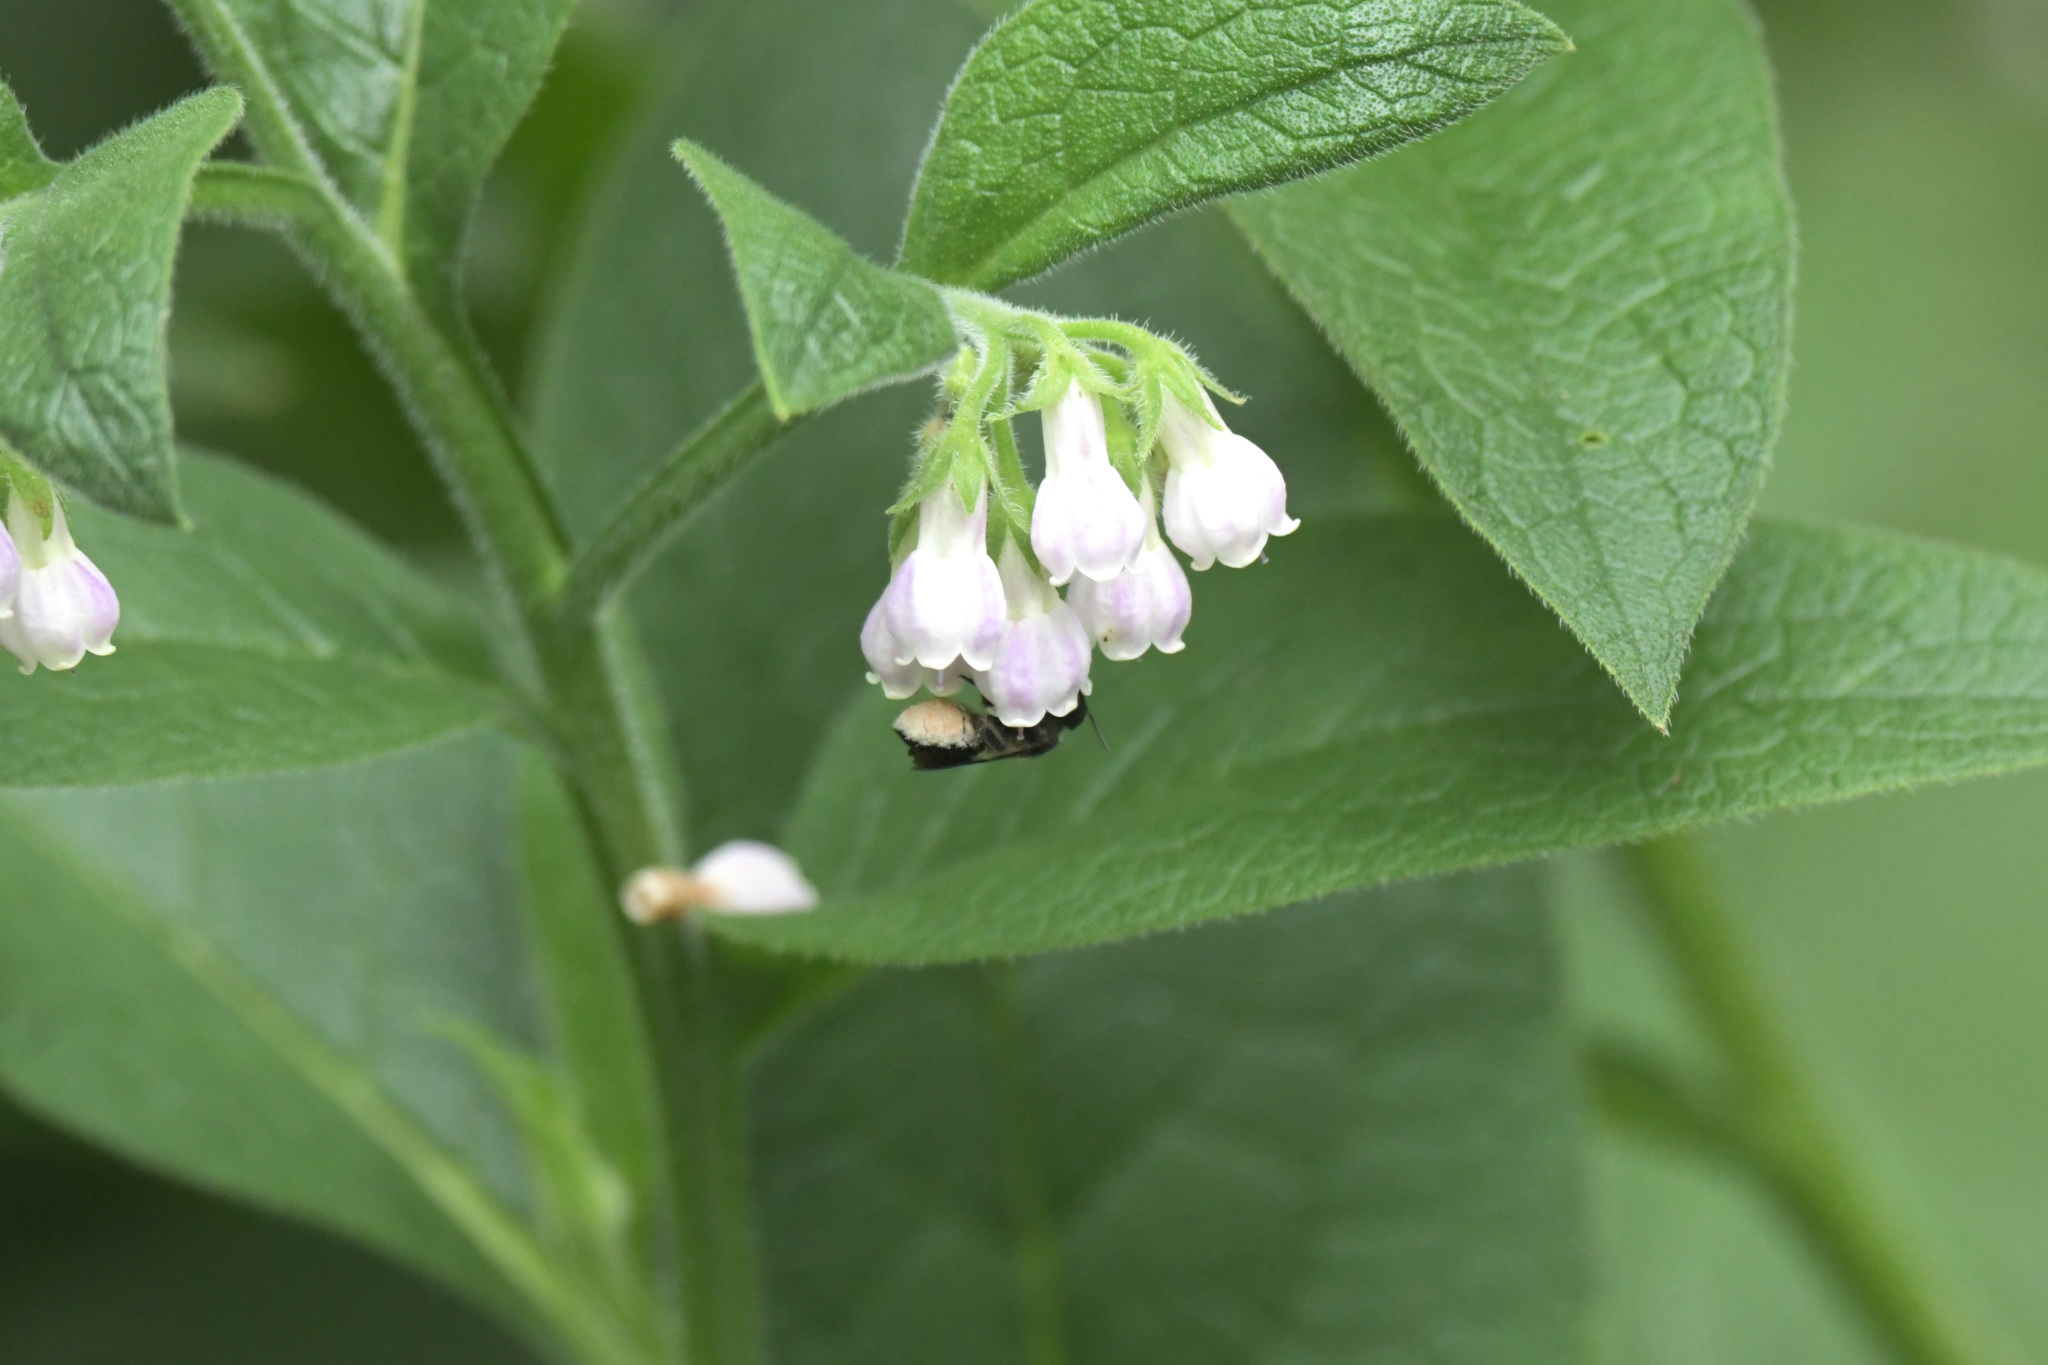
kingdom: Animalia
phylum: Arthropoda
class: Insecta
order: Hymenoptera
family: Megachilidae
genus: Megachile
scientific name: Megachile conjuncta
